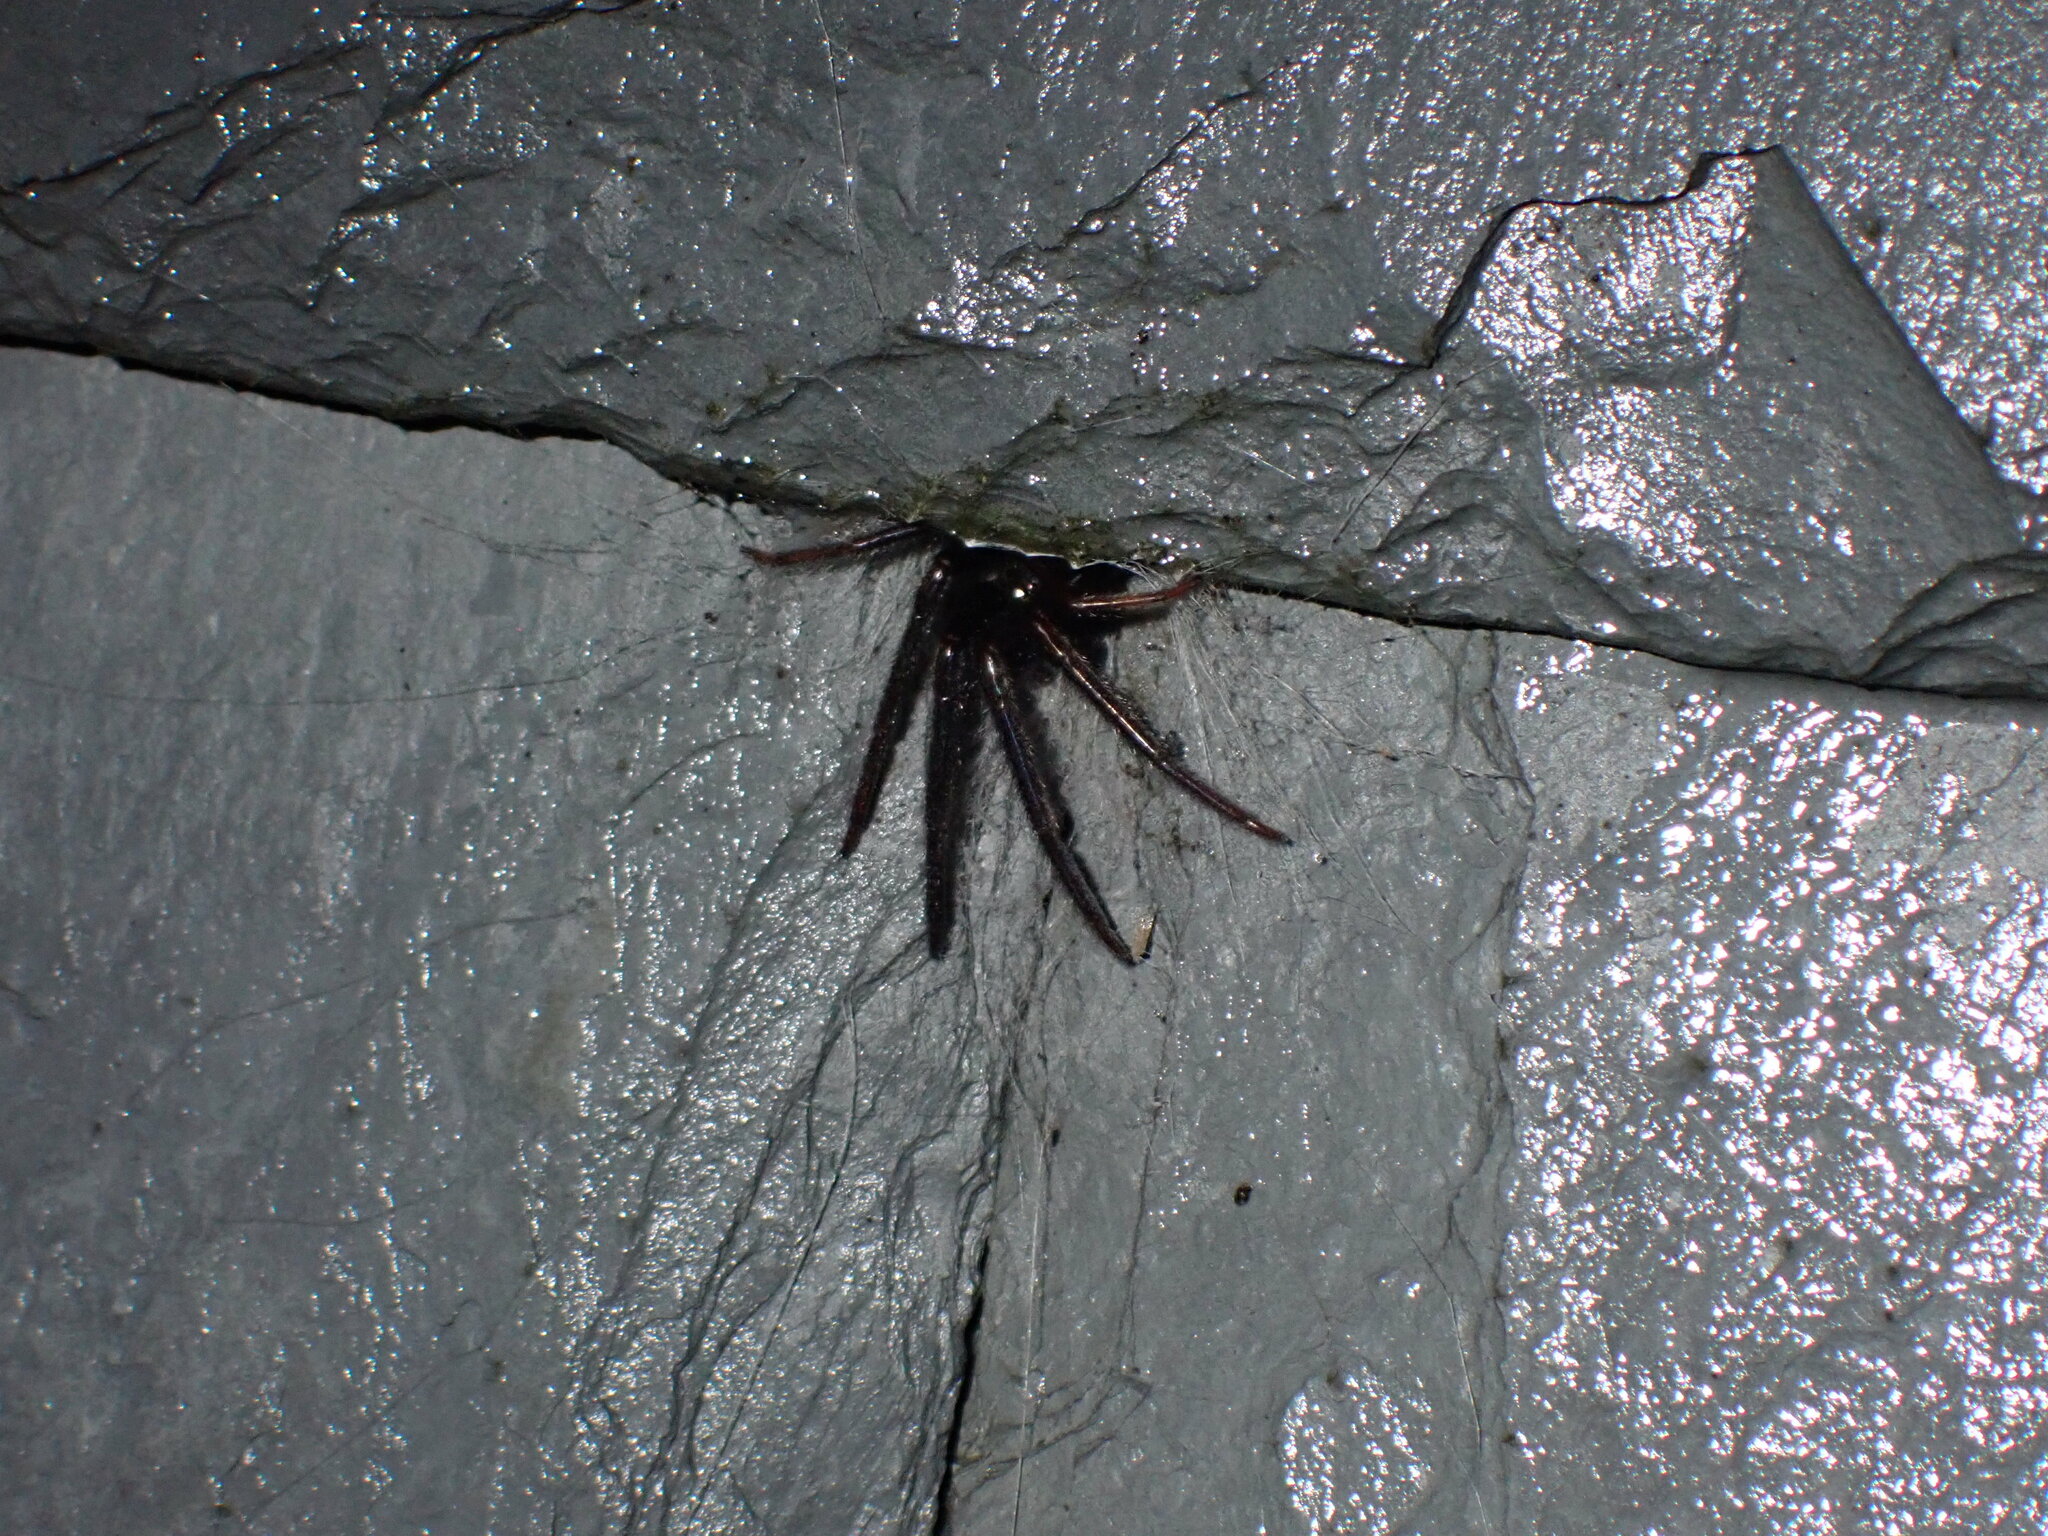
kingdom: Animalia
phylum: Arthropoda
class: Arachnida
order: Araneae
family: Segestriidae
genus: Segestria
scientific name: Segestria florentina
